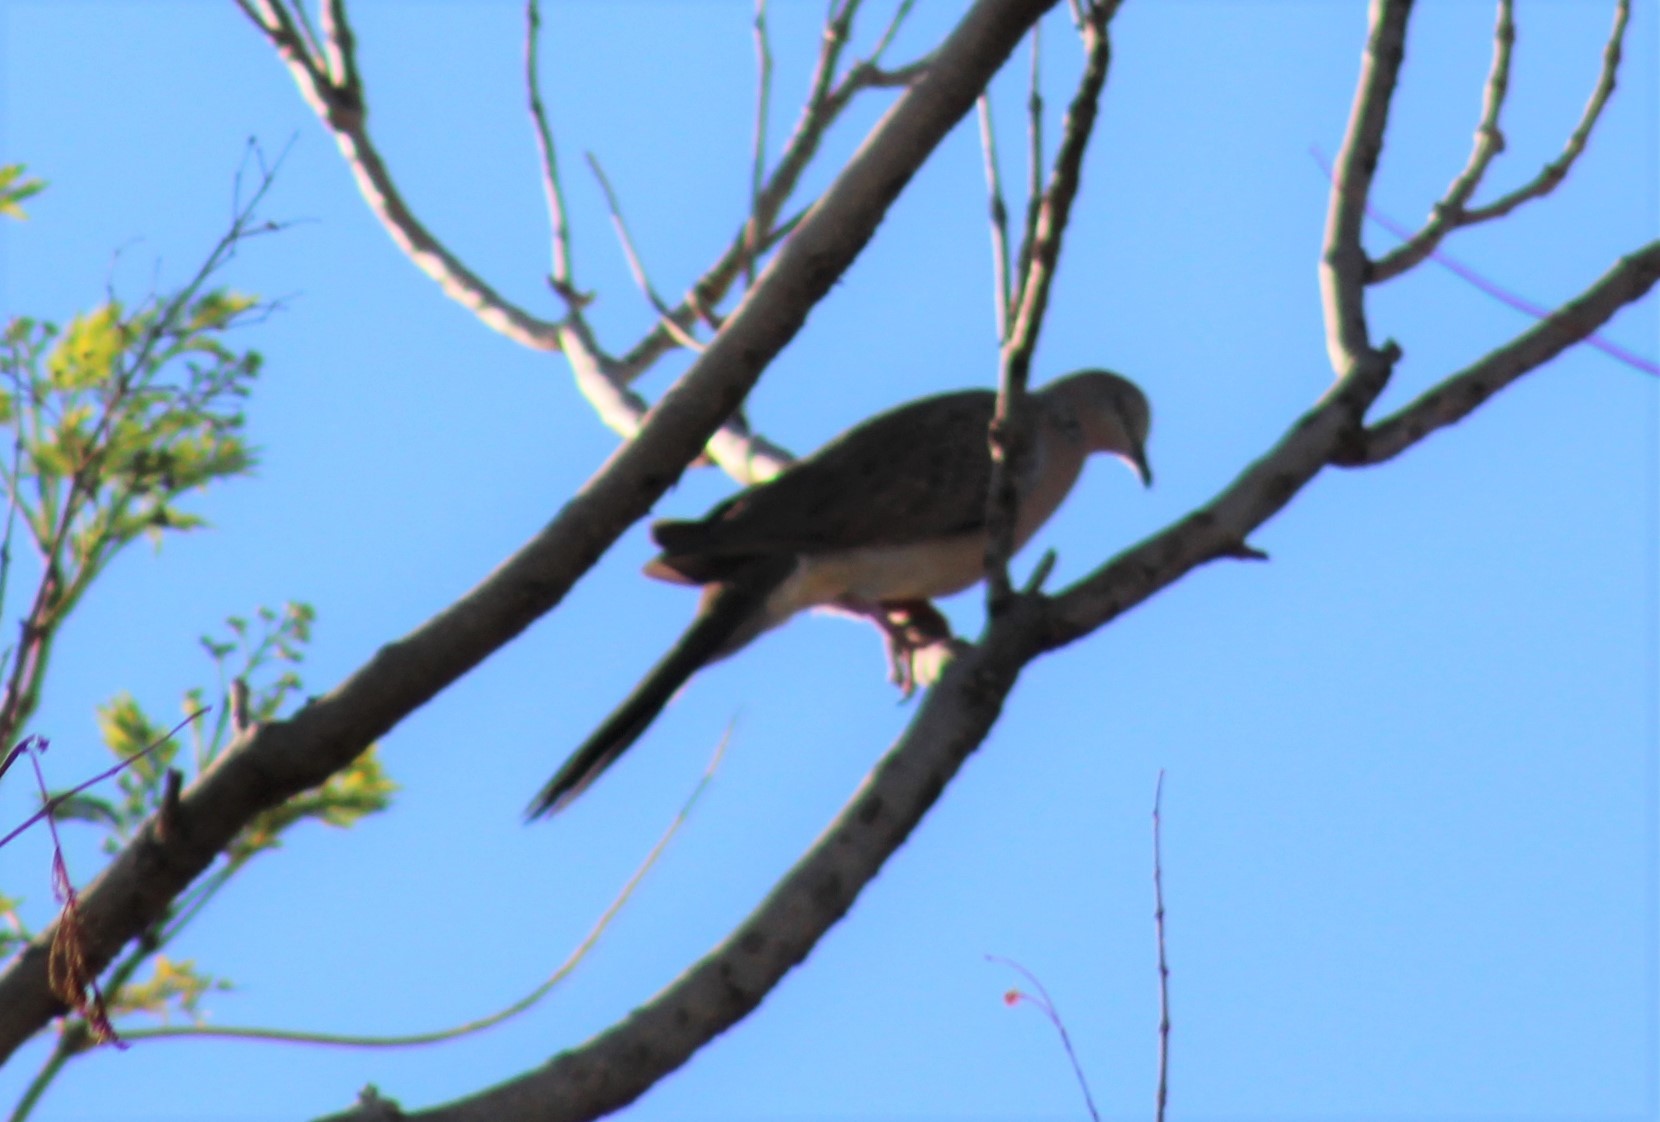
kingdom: Animalia
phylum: Chordata
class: Aves
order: Columbiformes
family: Columbidae
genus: Spilopelia
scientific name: Spilopelia chinensis
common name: Spotted dove
